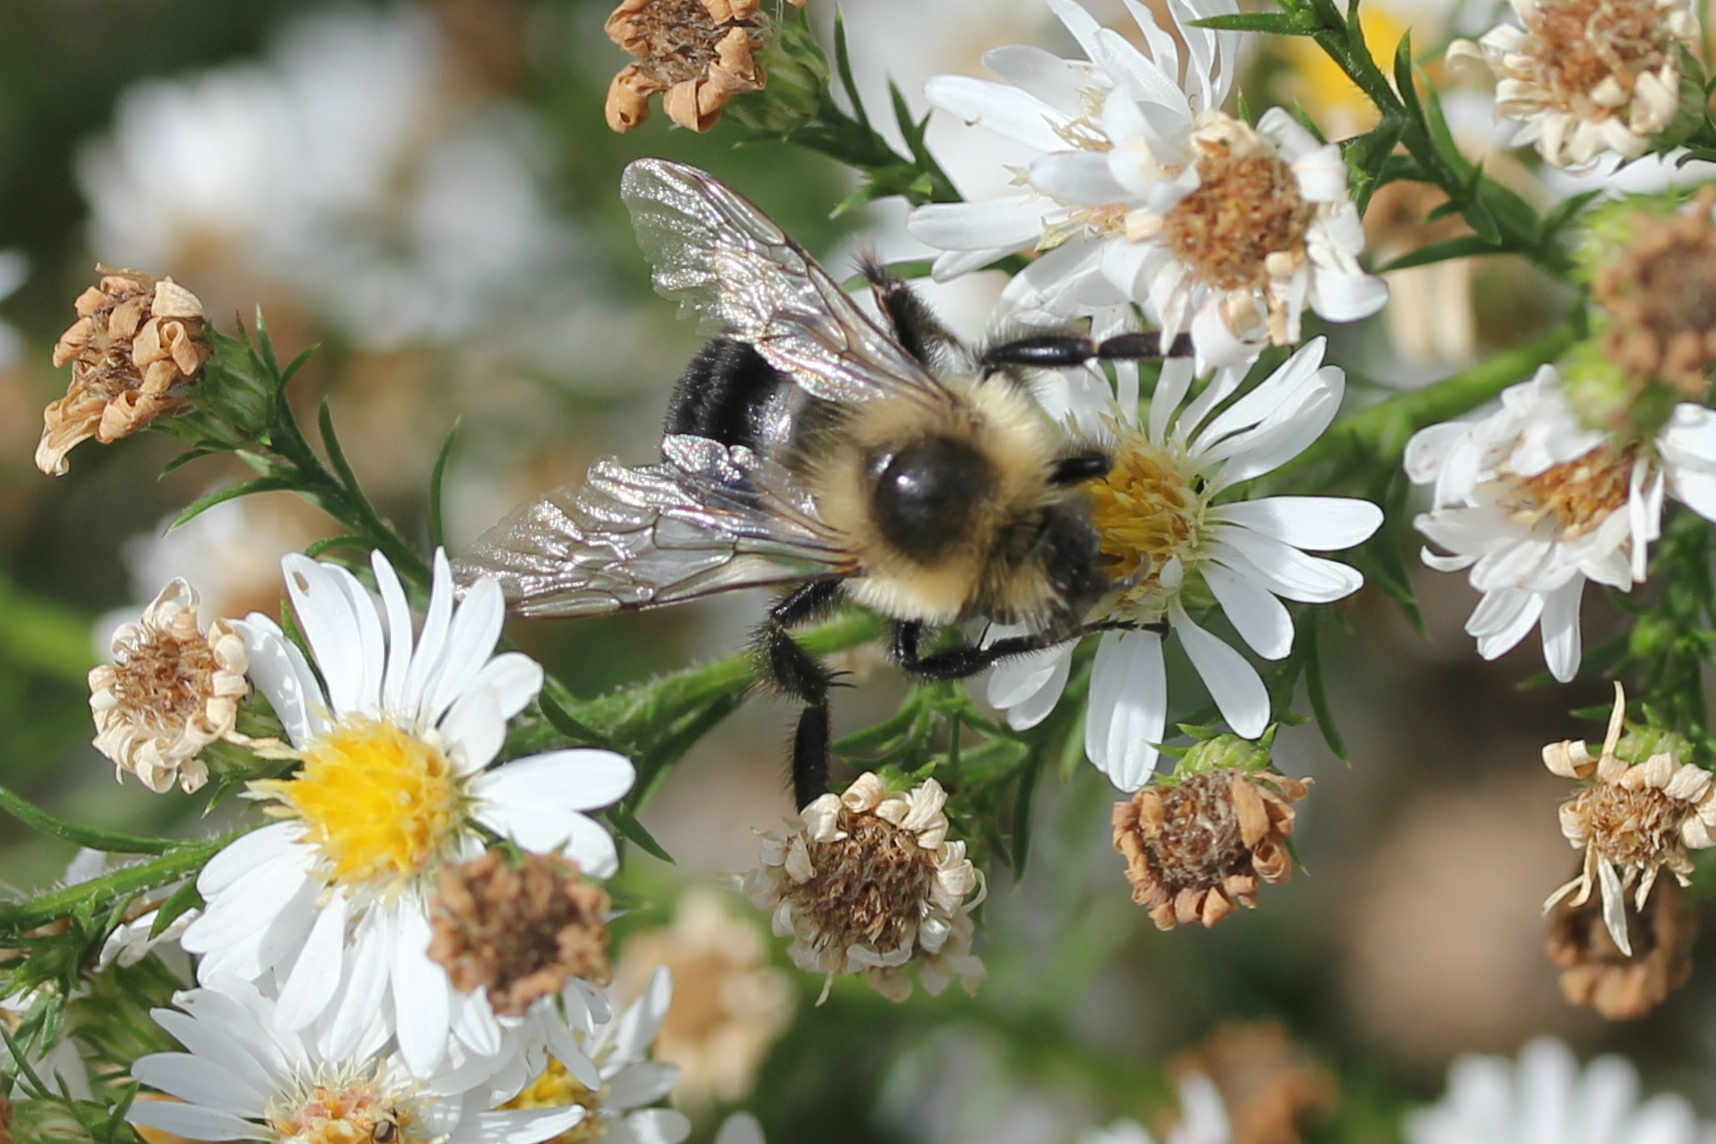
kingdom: Animalia
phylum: Arthropoda
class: Insecta
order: Hymenoptera
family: Apidae
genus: Bombus
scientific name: Bombus impatiens
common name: Common eastern bumble bee
